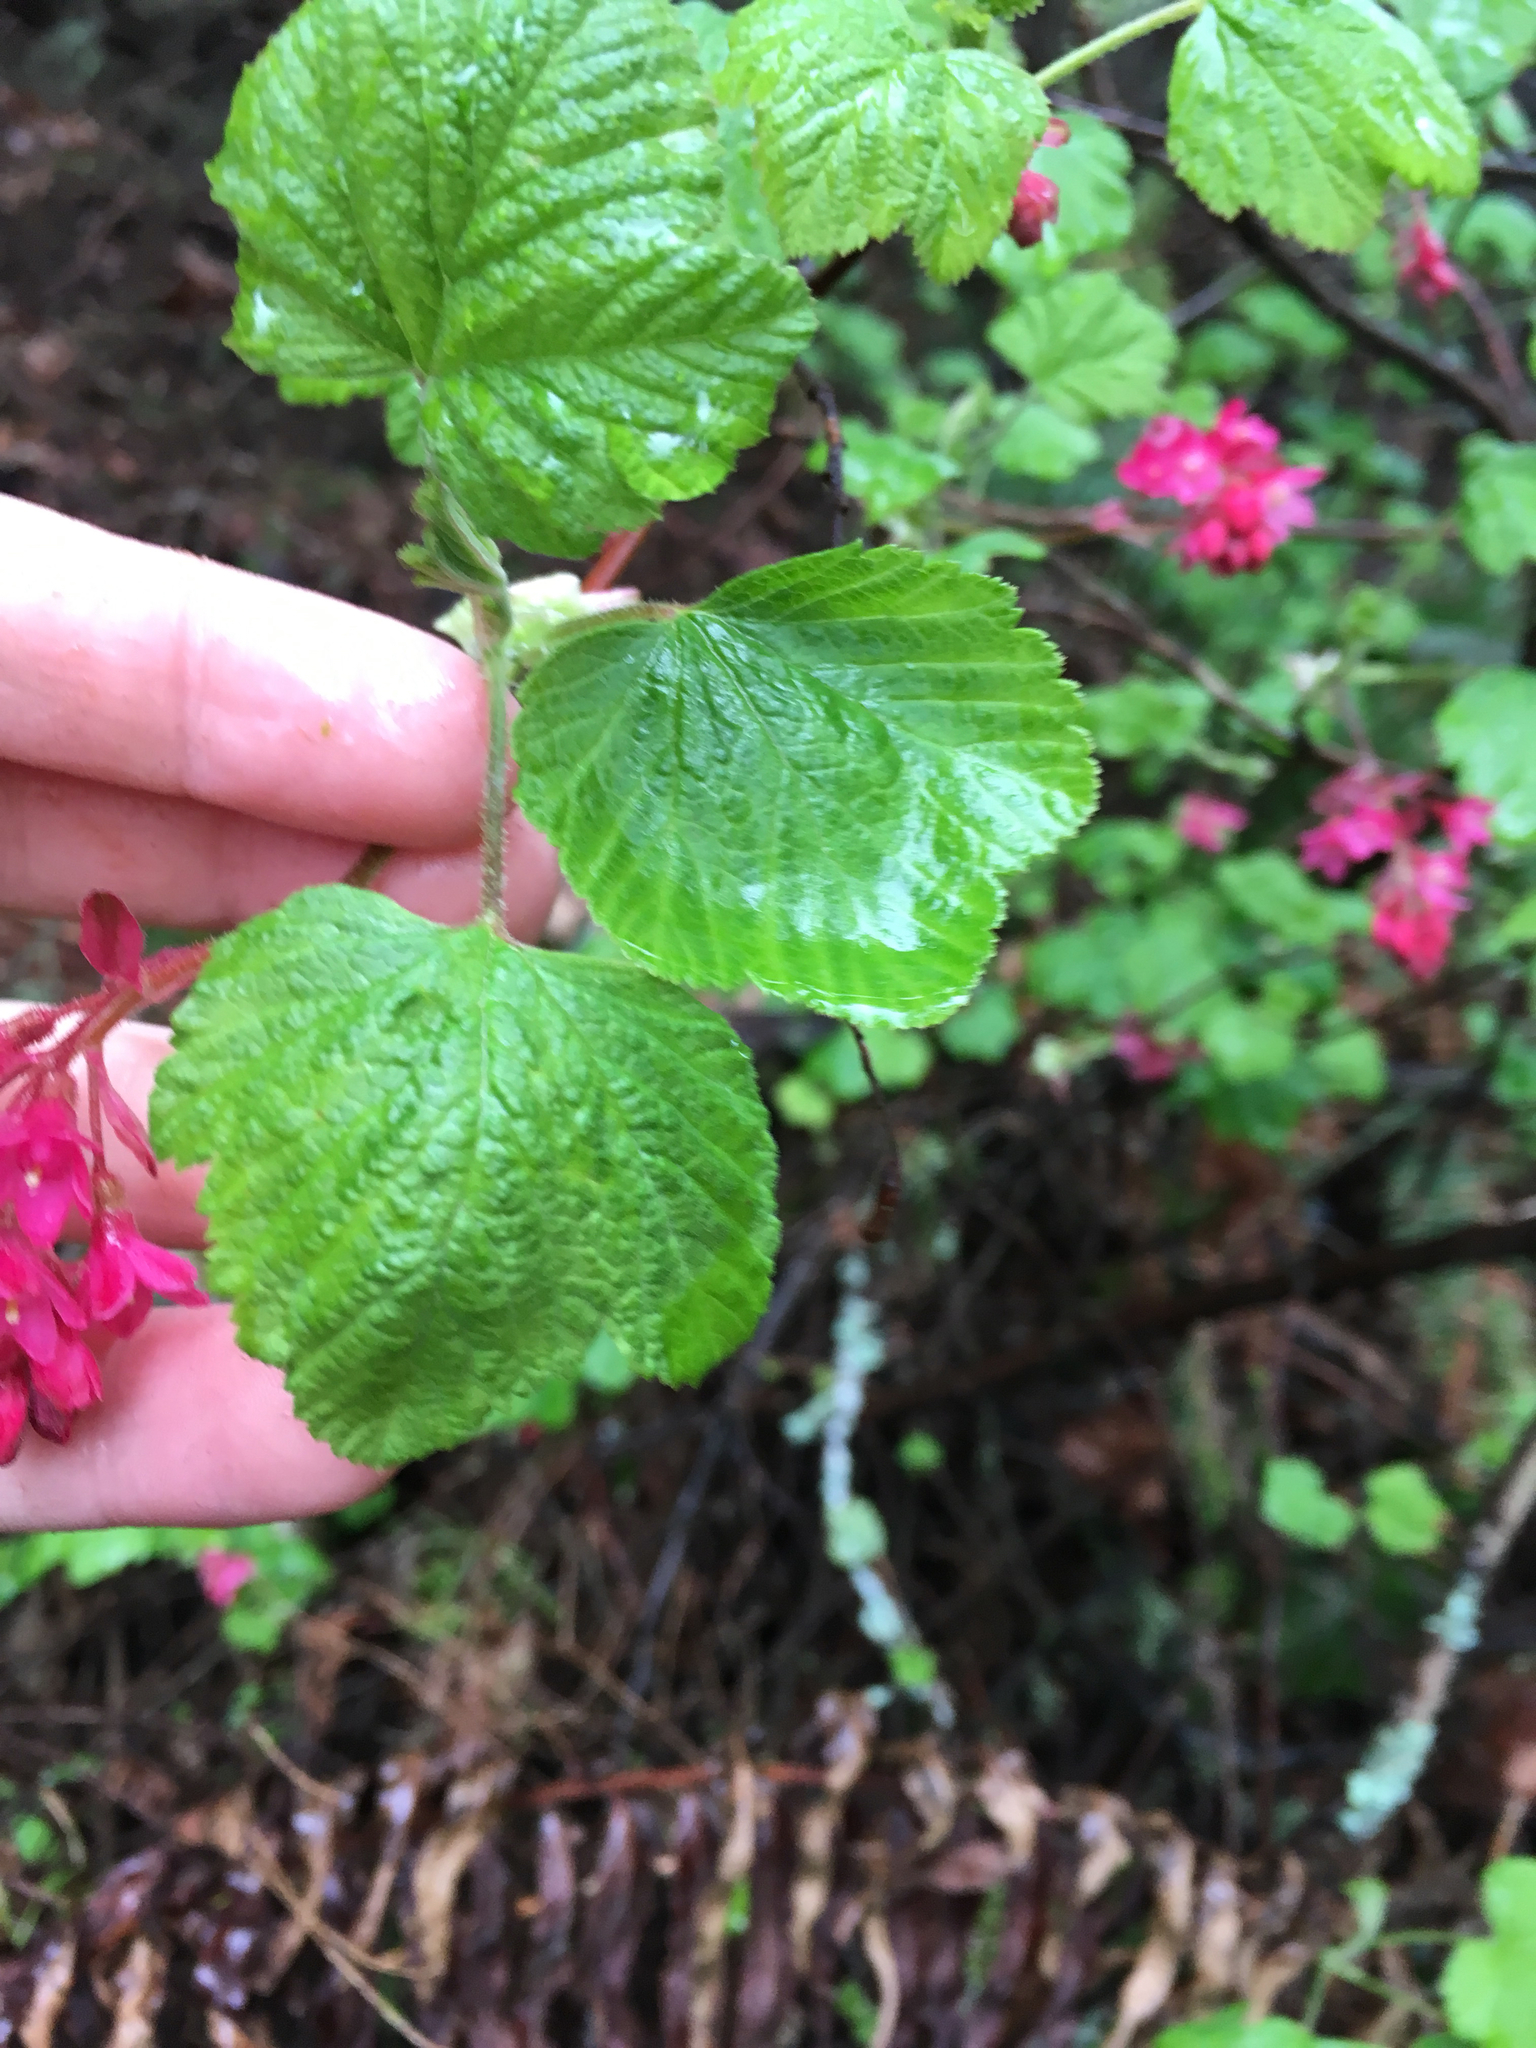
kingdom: Plantae
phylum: Tracheophyta
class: Magnoliopsida
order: Saxifragales
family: Grossulariaceae
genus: Ribes
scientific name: Ribes sanguineum
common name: Flowering currant
